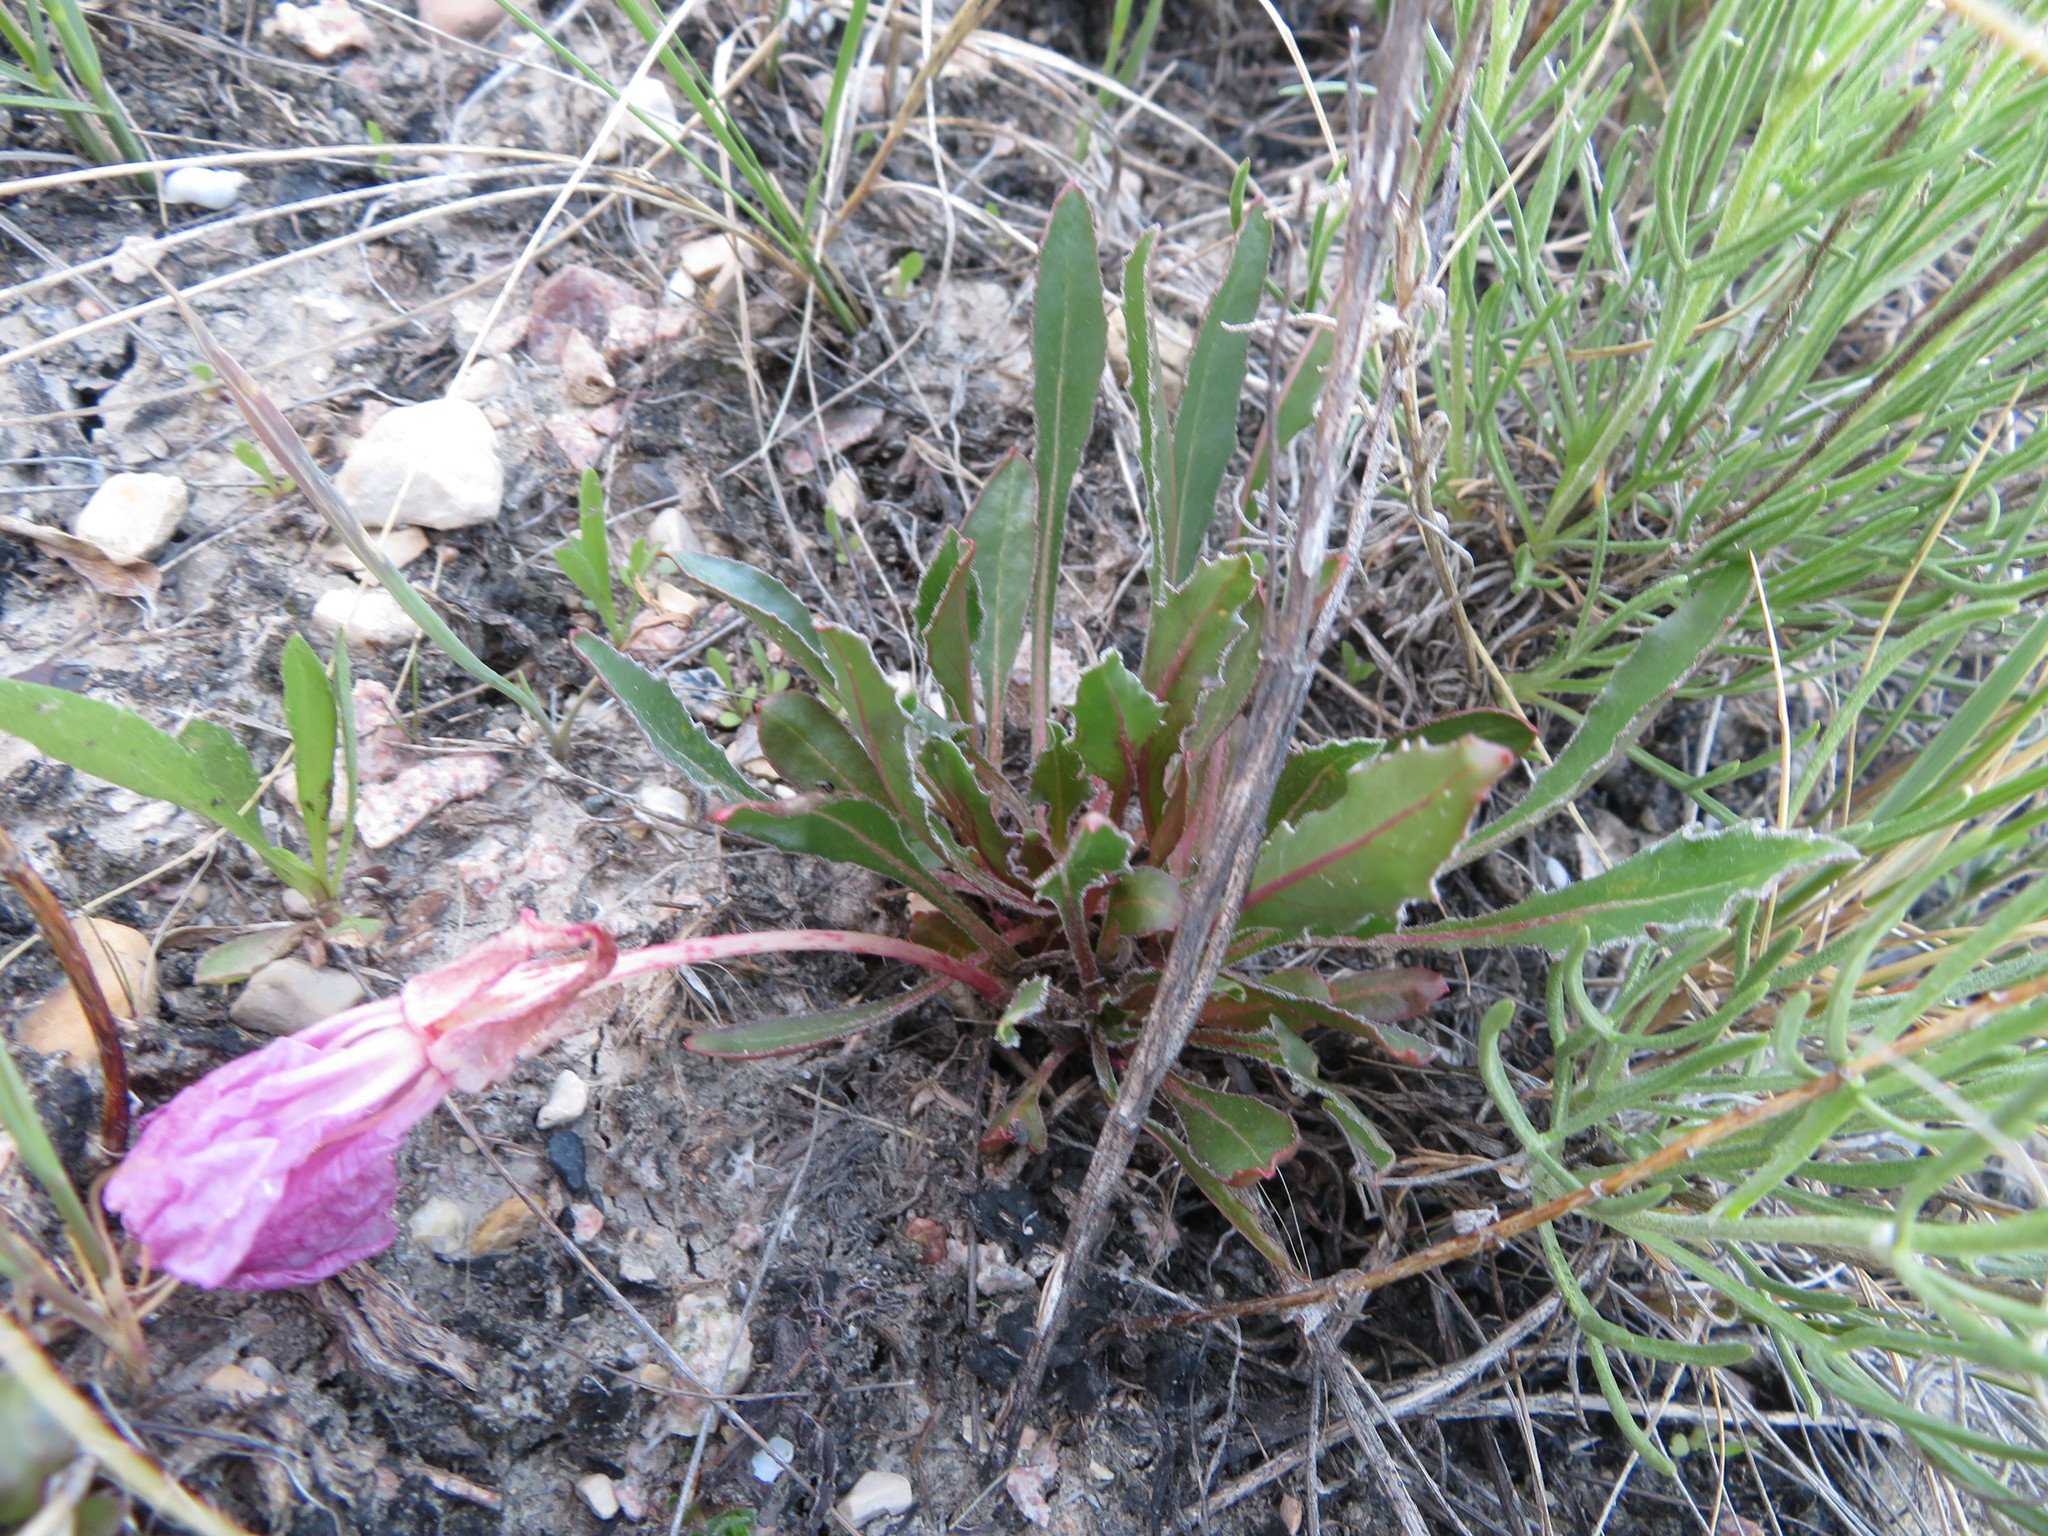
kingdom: Plantae
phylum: Tracheophyta
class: Magnoliopsida
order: Myrtales
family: Onagraceae
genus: Oenothera
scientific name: Oenothera cespitosa
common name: Tufted evening-primrose
